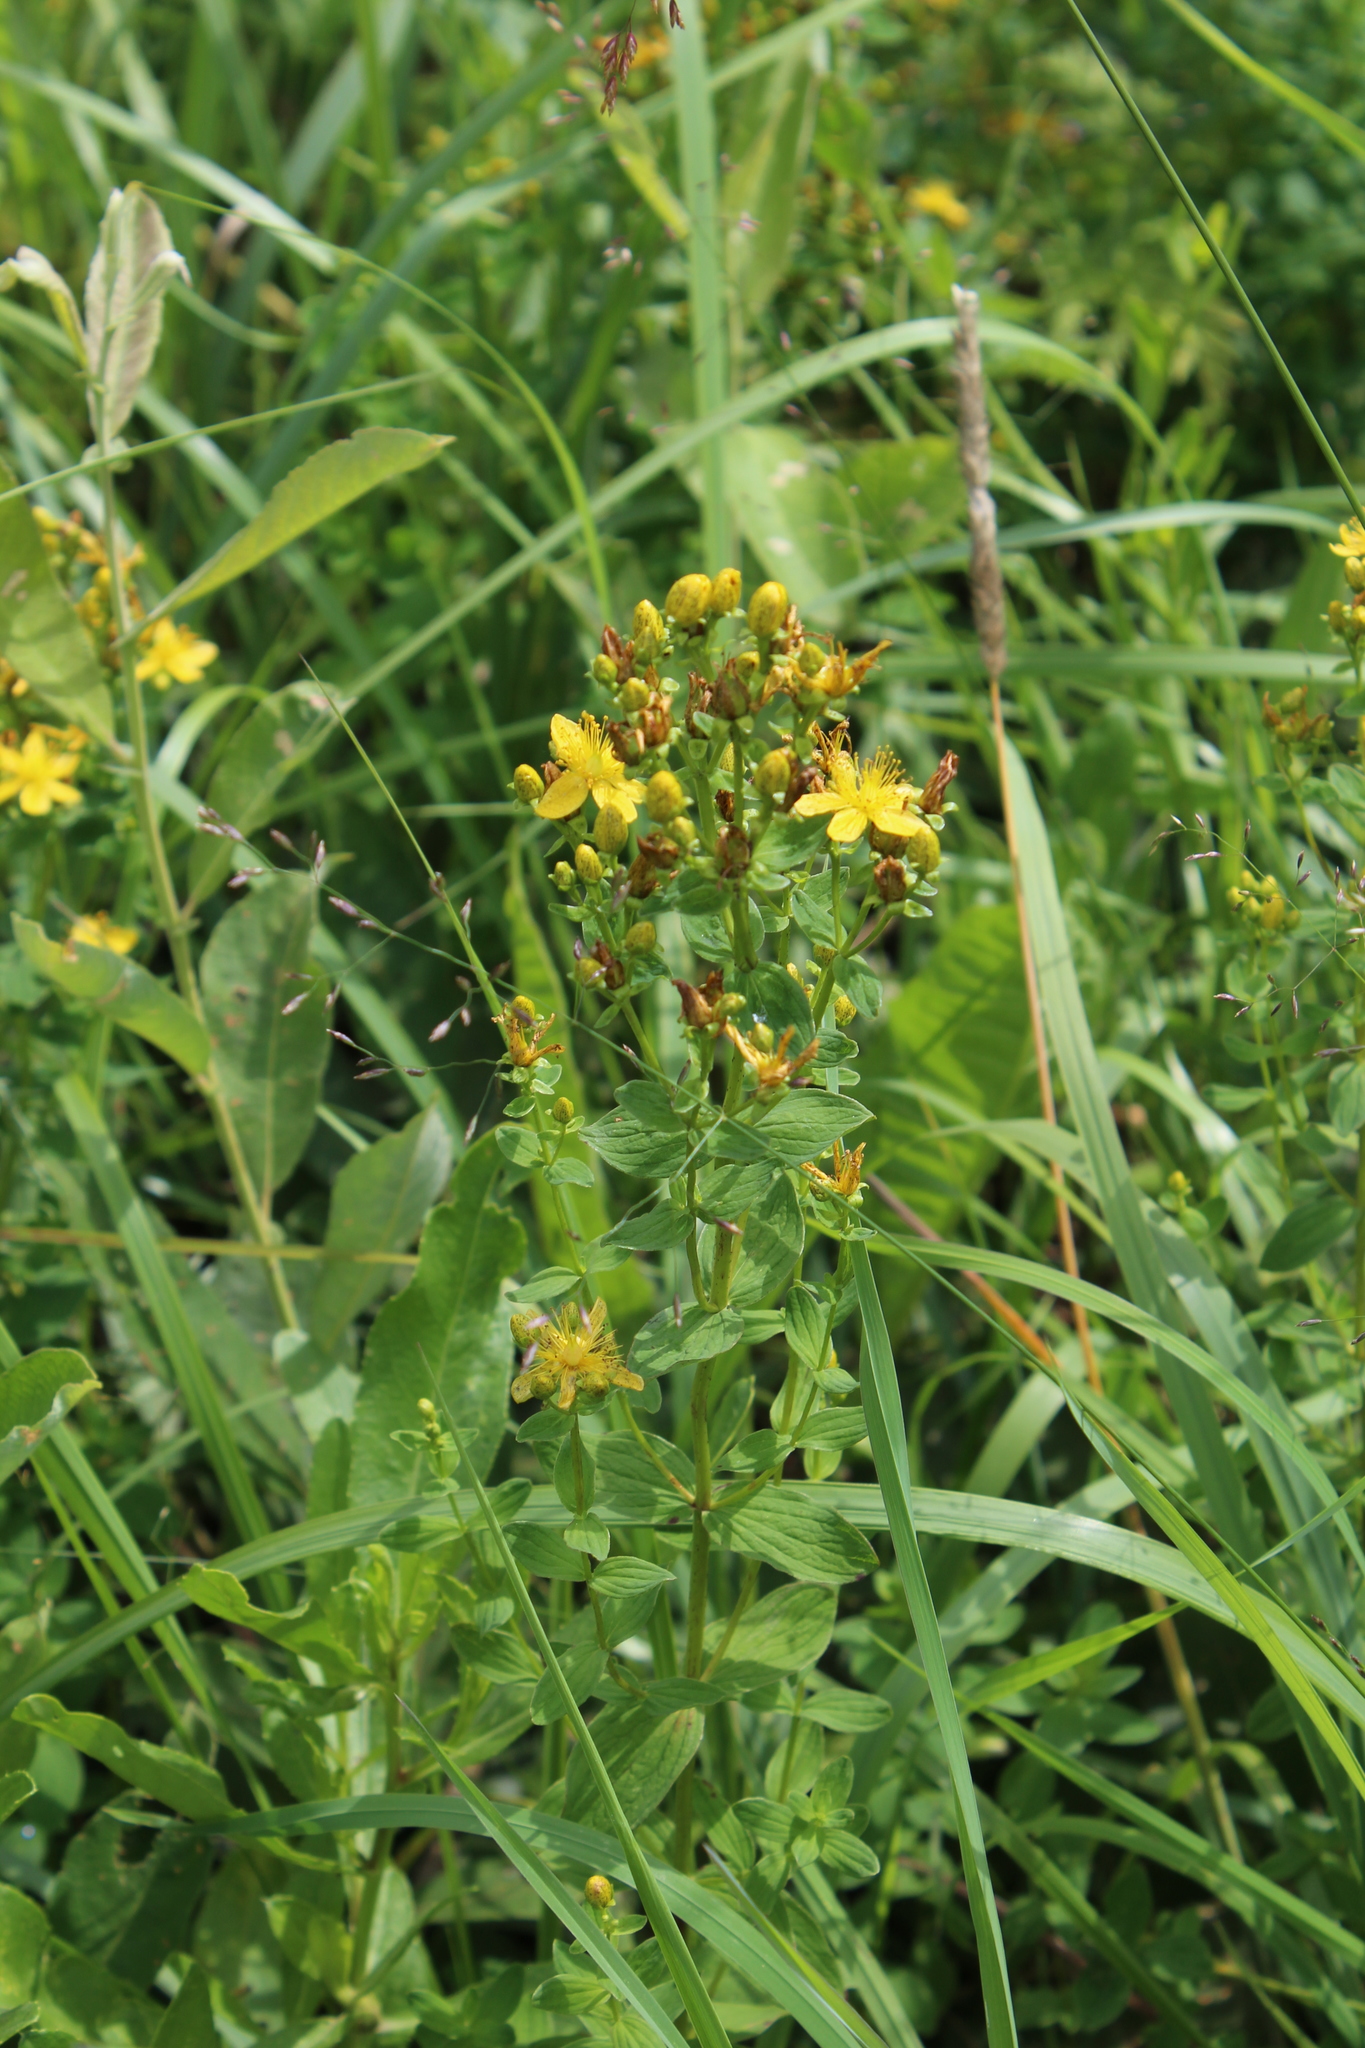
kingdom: Plantae
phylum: Tracheophyta
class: Magnoliopsida
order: Malpighiales
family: Hypericaceae
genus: Hypericum
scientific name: Hypericum maculatum
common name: Imperforate st. john's-wort
